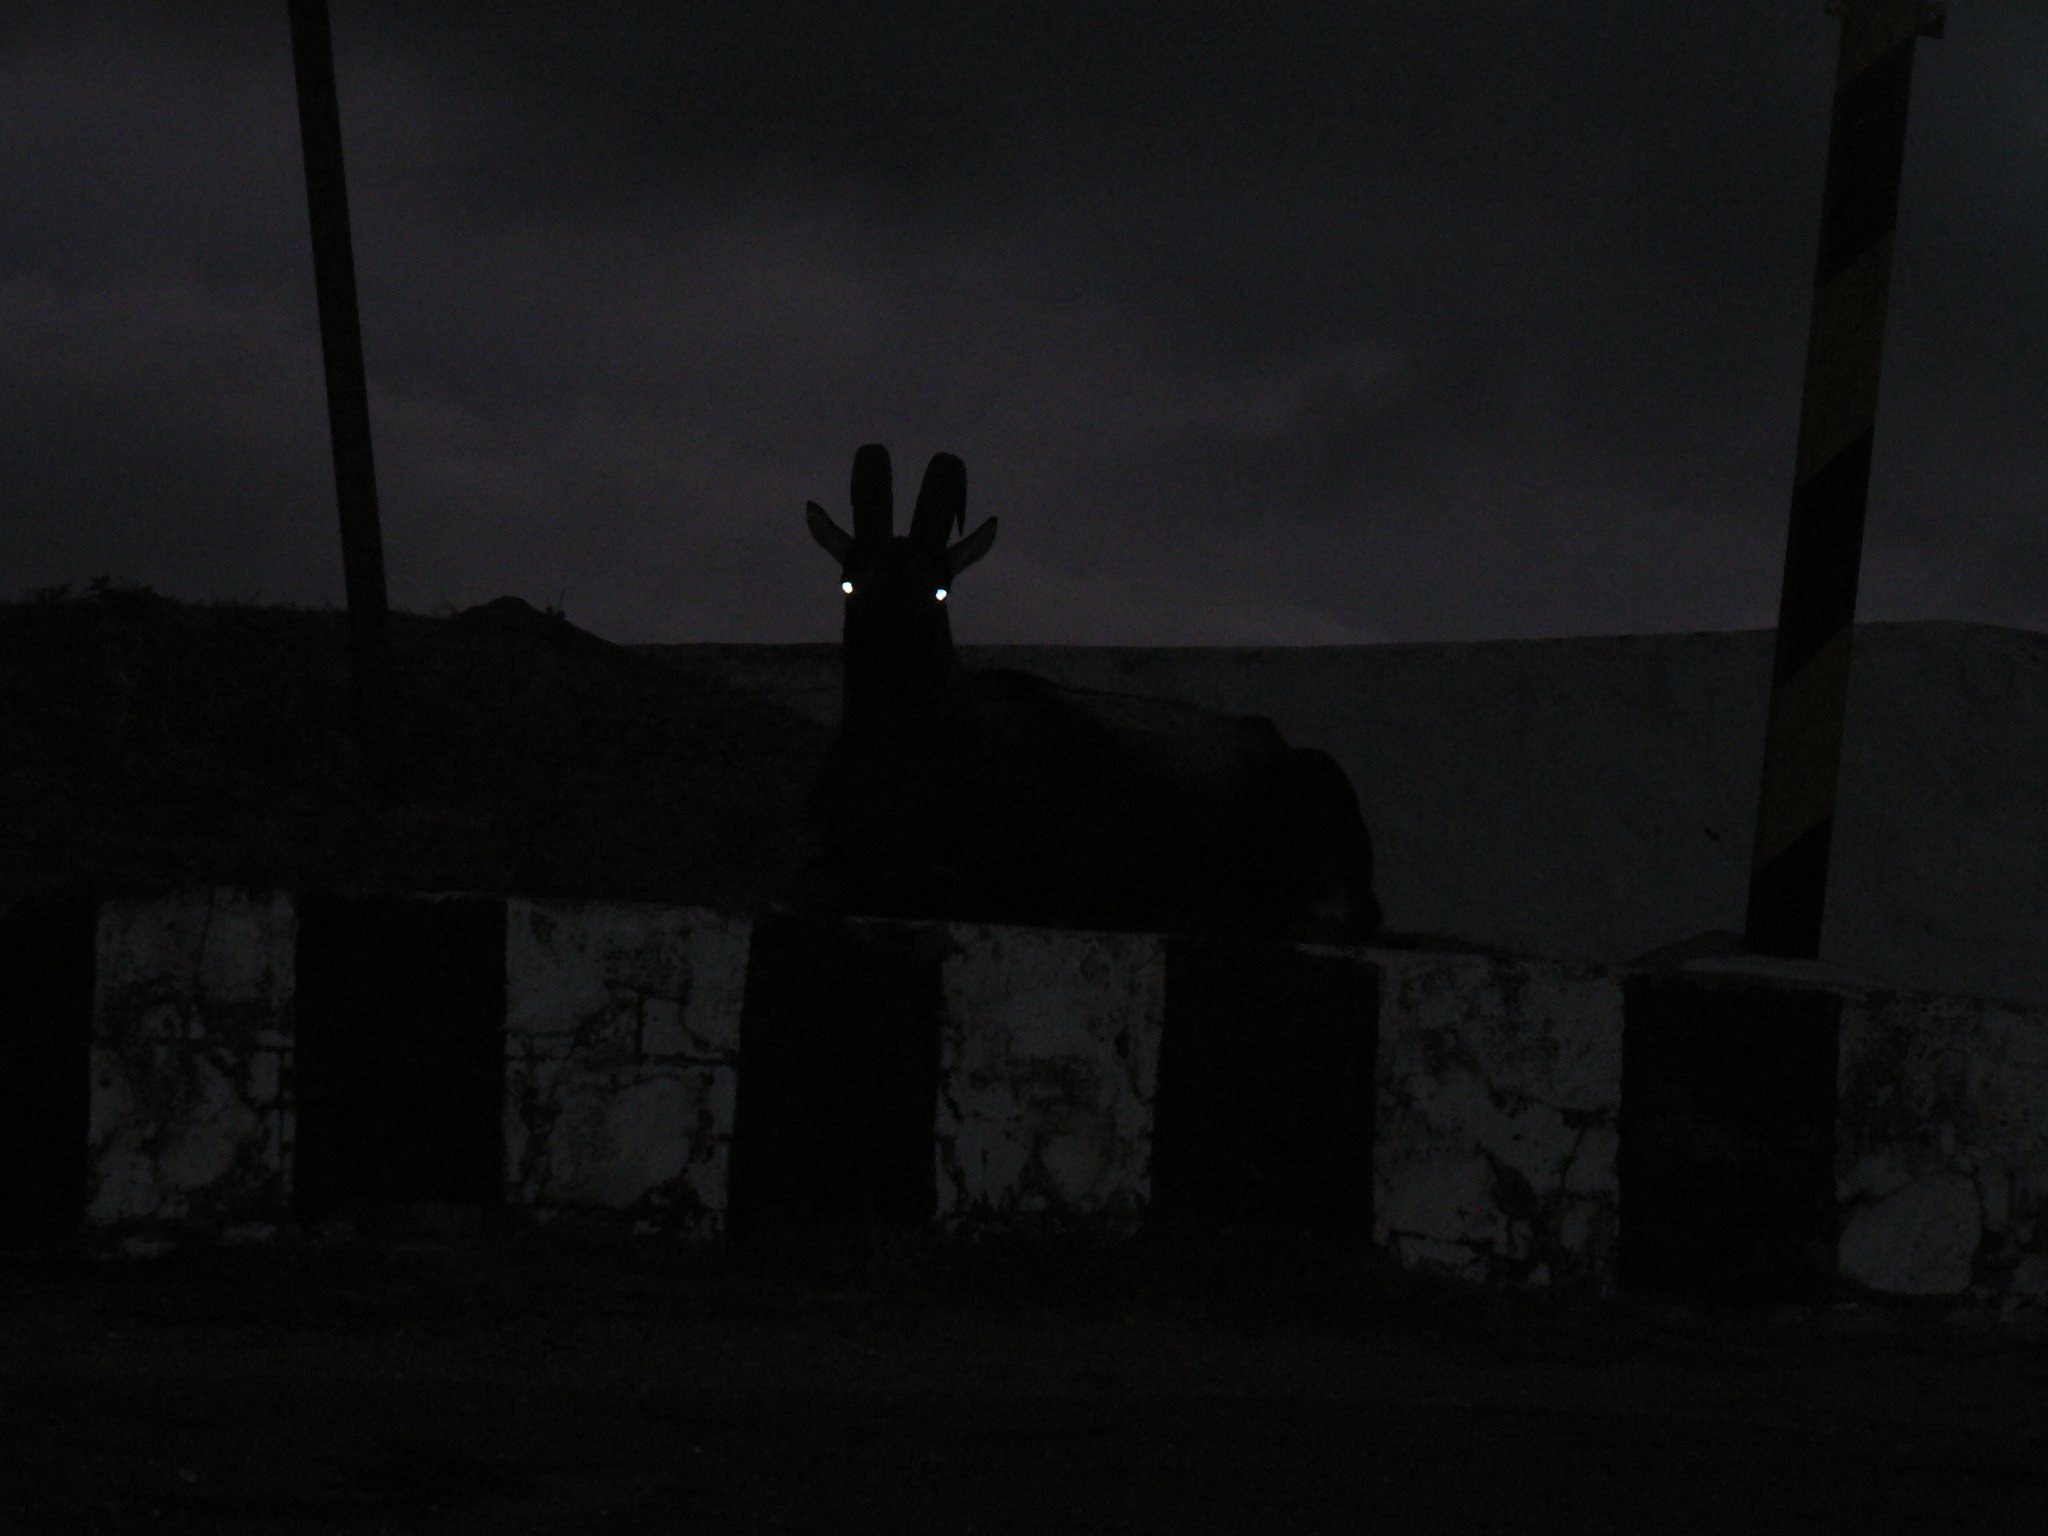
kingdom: Animalia
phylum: Chordata
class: Mammalia
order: Artiodactyla
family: Bovidae
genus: Hemitragus
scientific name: Hemitragus hylocrius
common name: Nilgiri tahr
